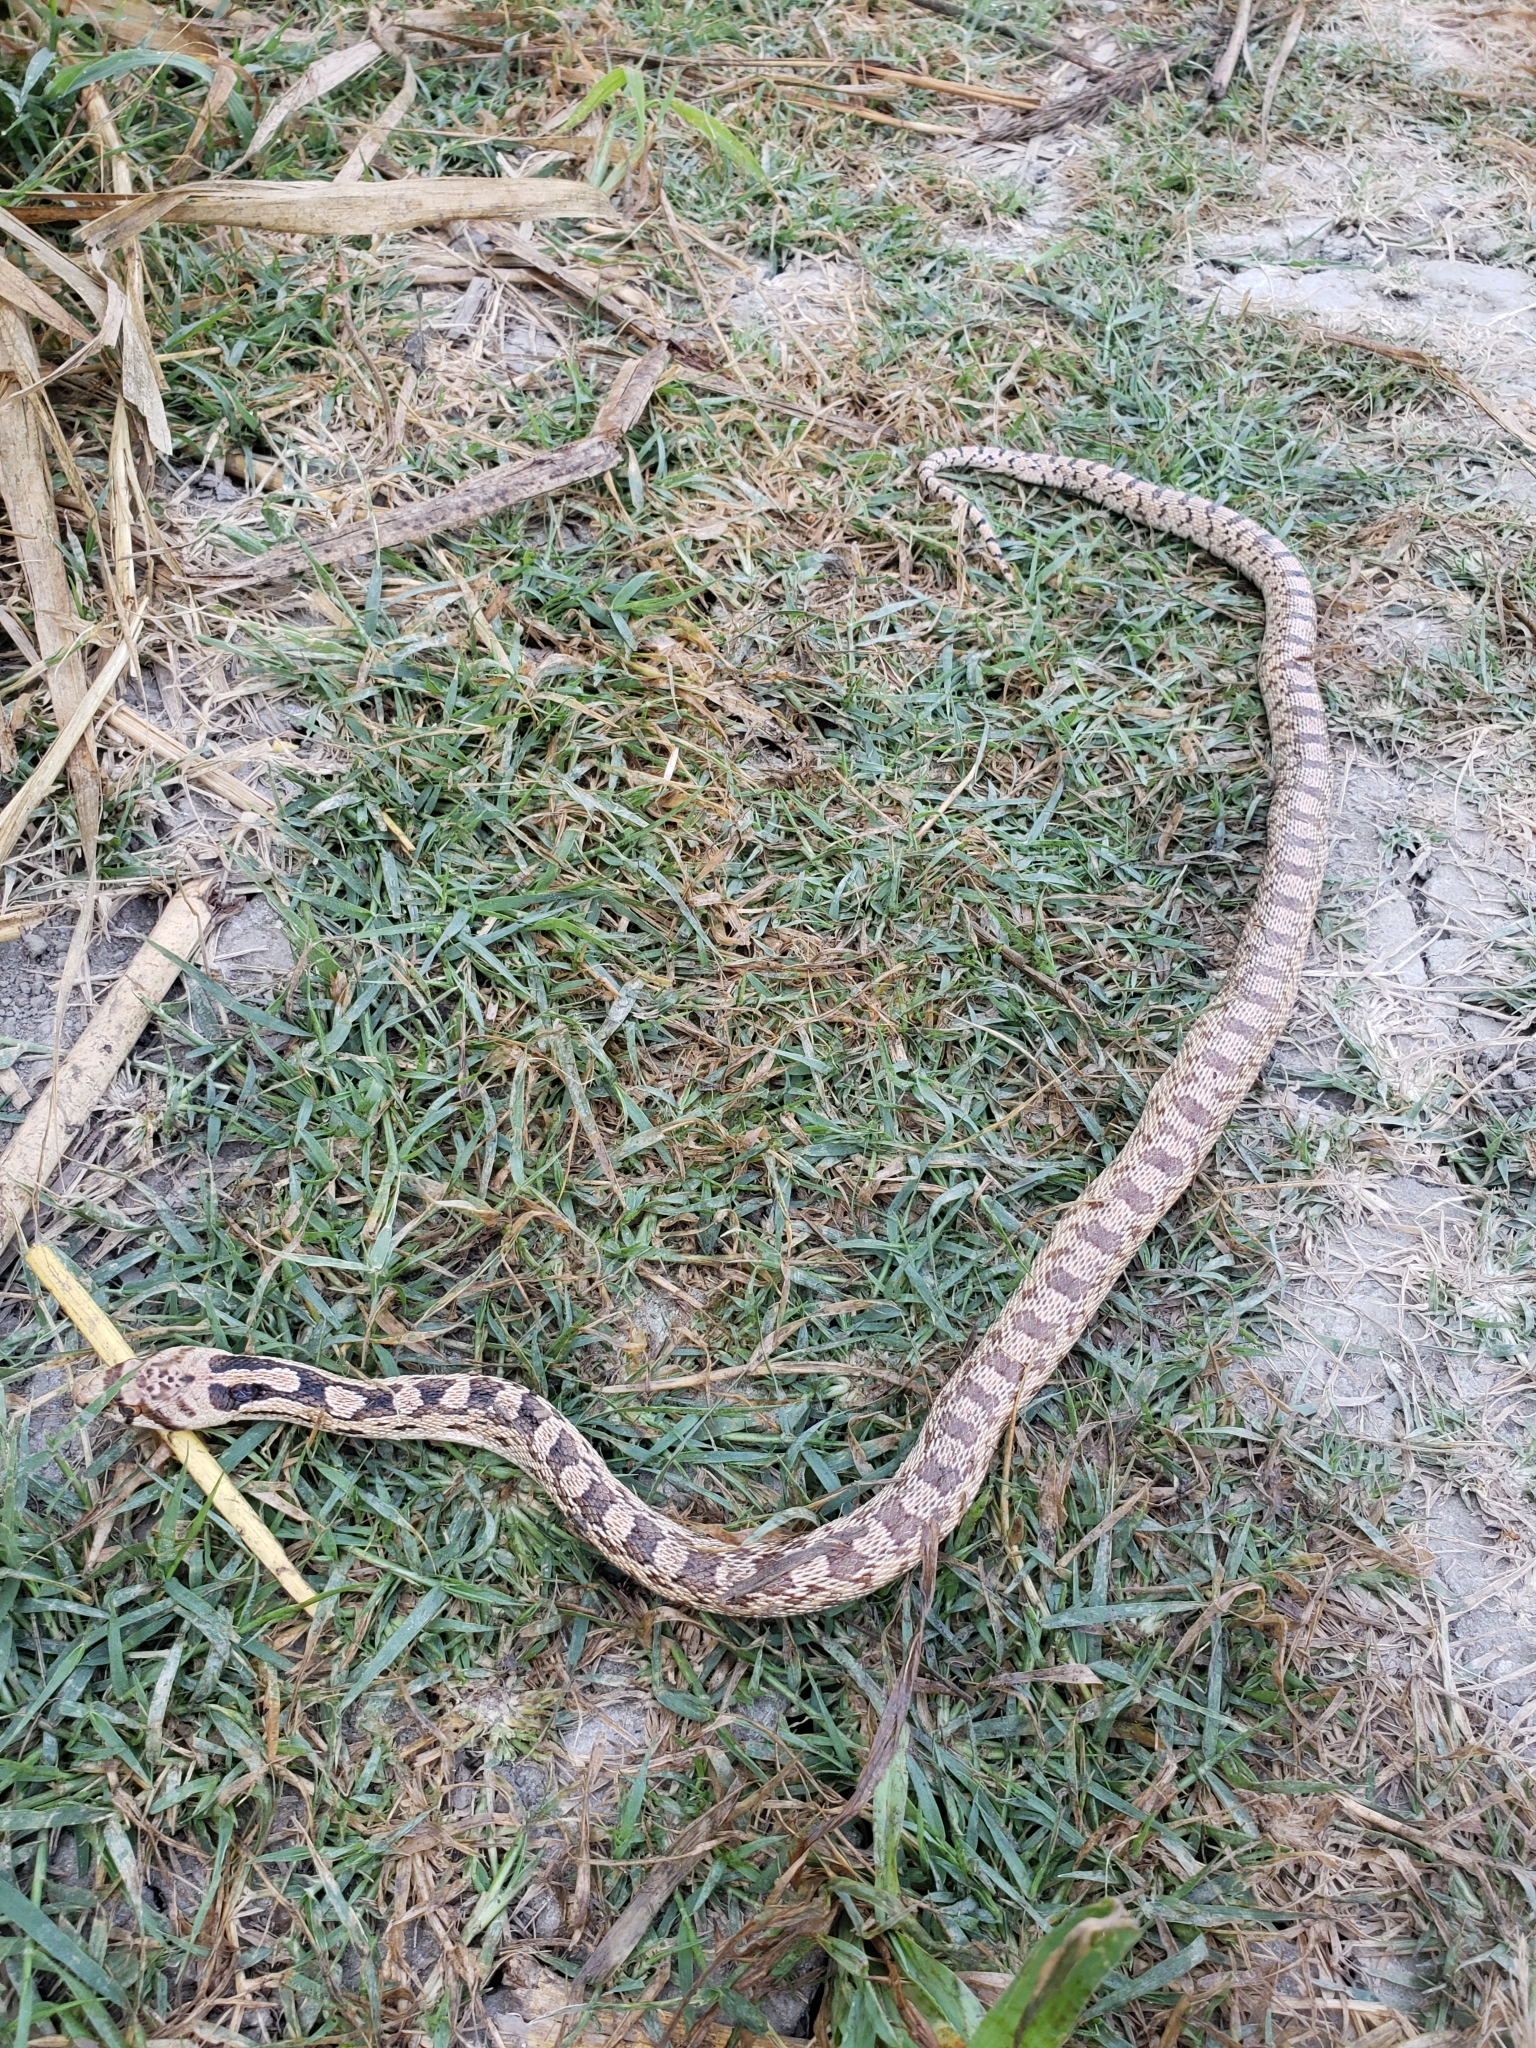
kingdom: Animalia
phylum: Chordata
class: Squamata
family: Colubridae
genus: Pituophis
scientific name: Pituophis catenifer
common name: Gopher snake
